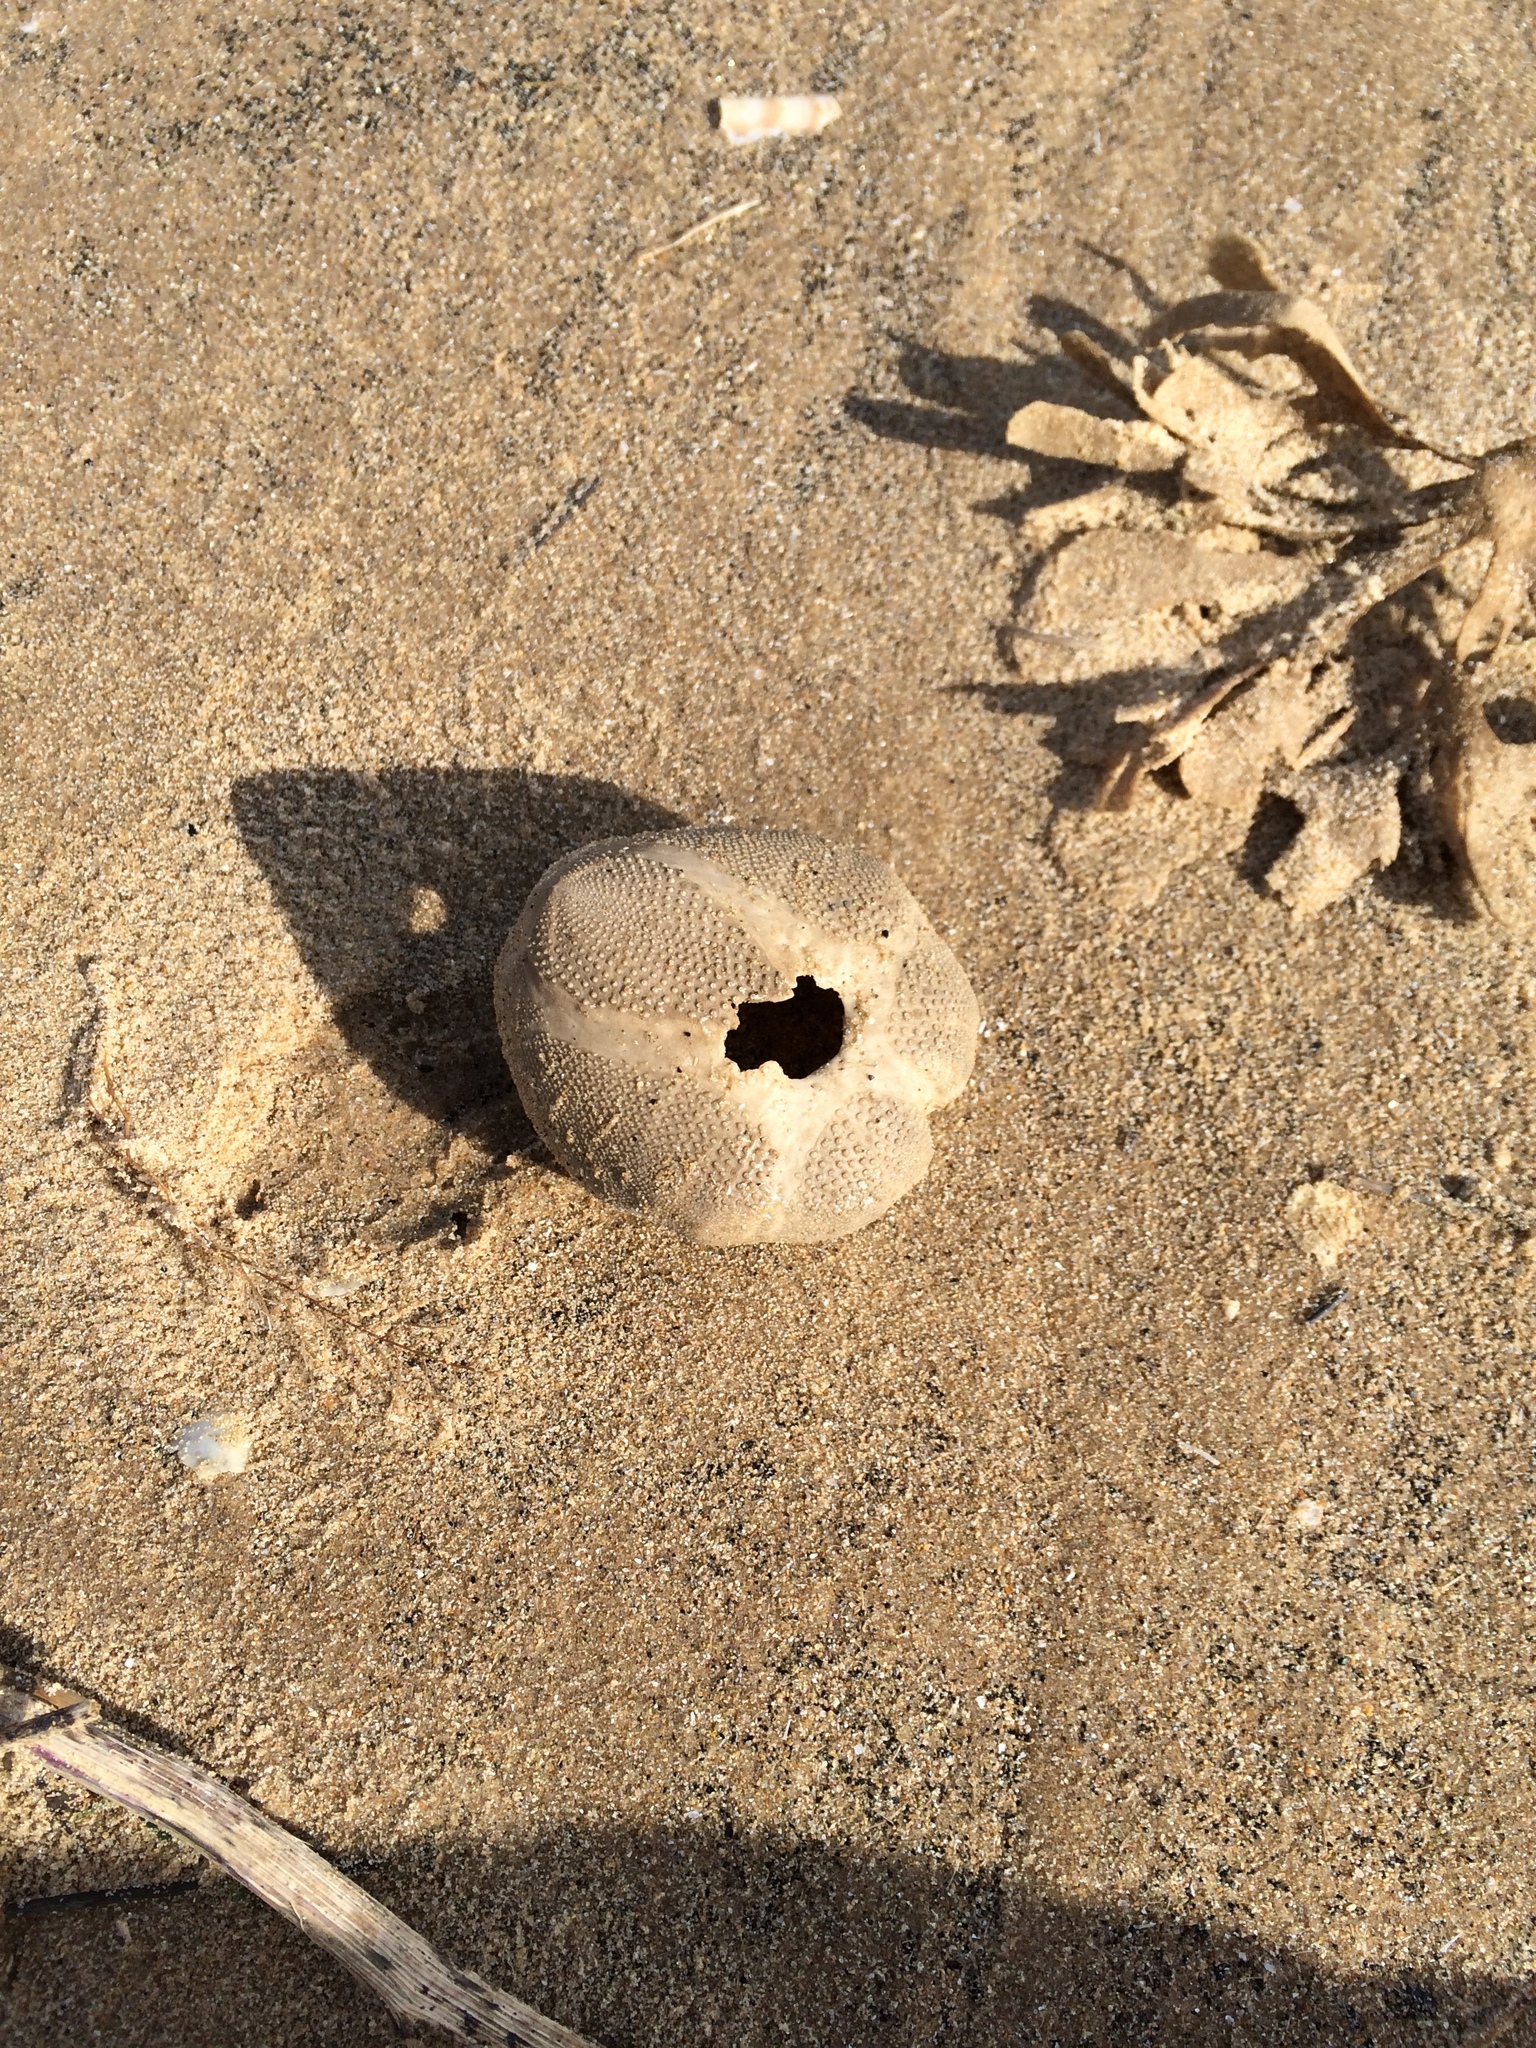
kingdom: Animalia
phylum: Echinodermata
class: Echinoidea
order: Spatangoida
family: Loveniidae
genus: Echinocardium
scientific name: Echinocardium cordatum
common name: Heart-urchin
